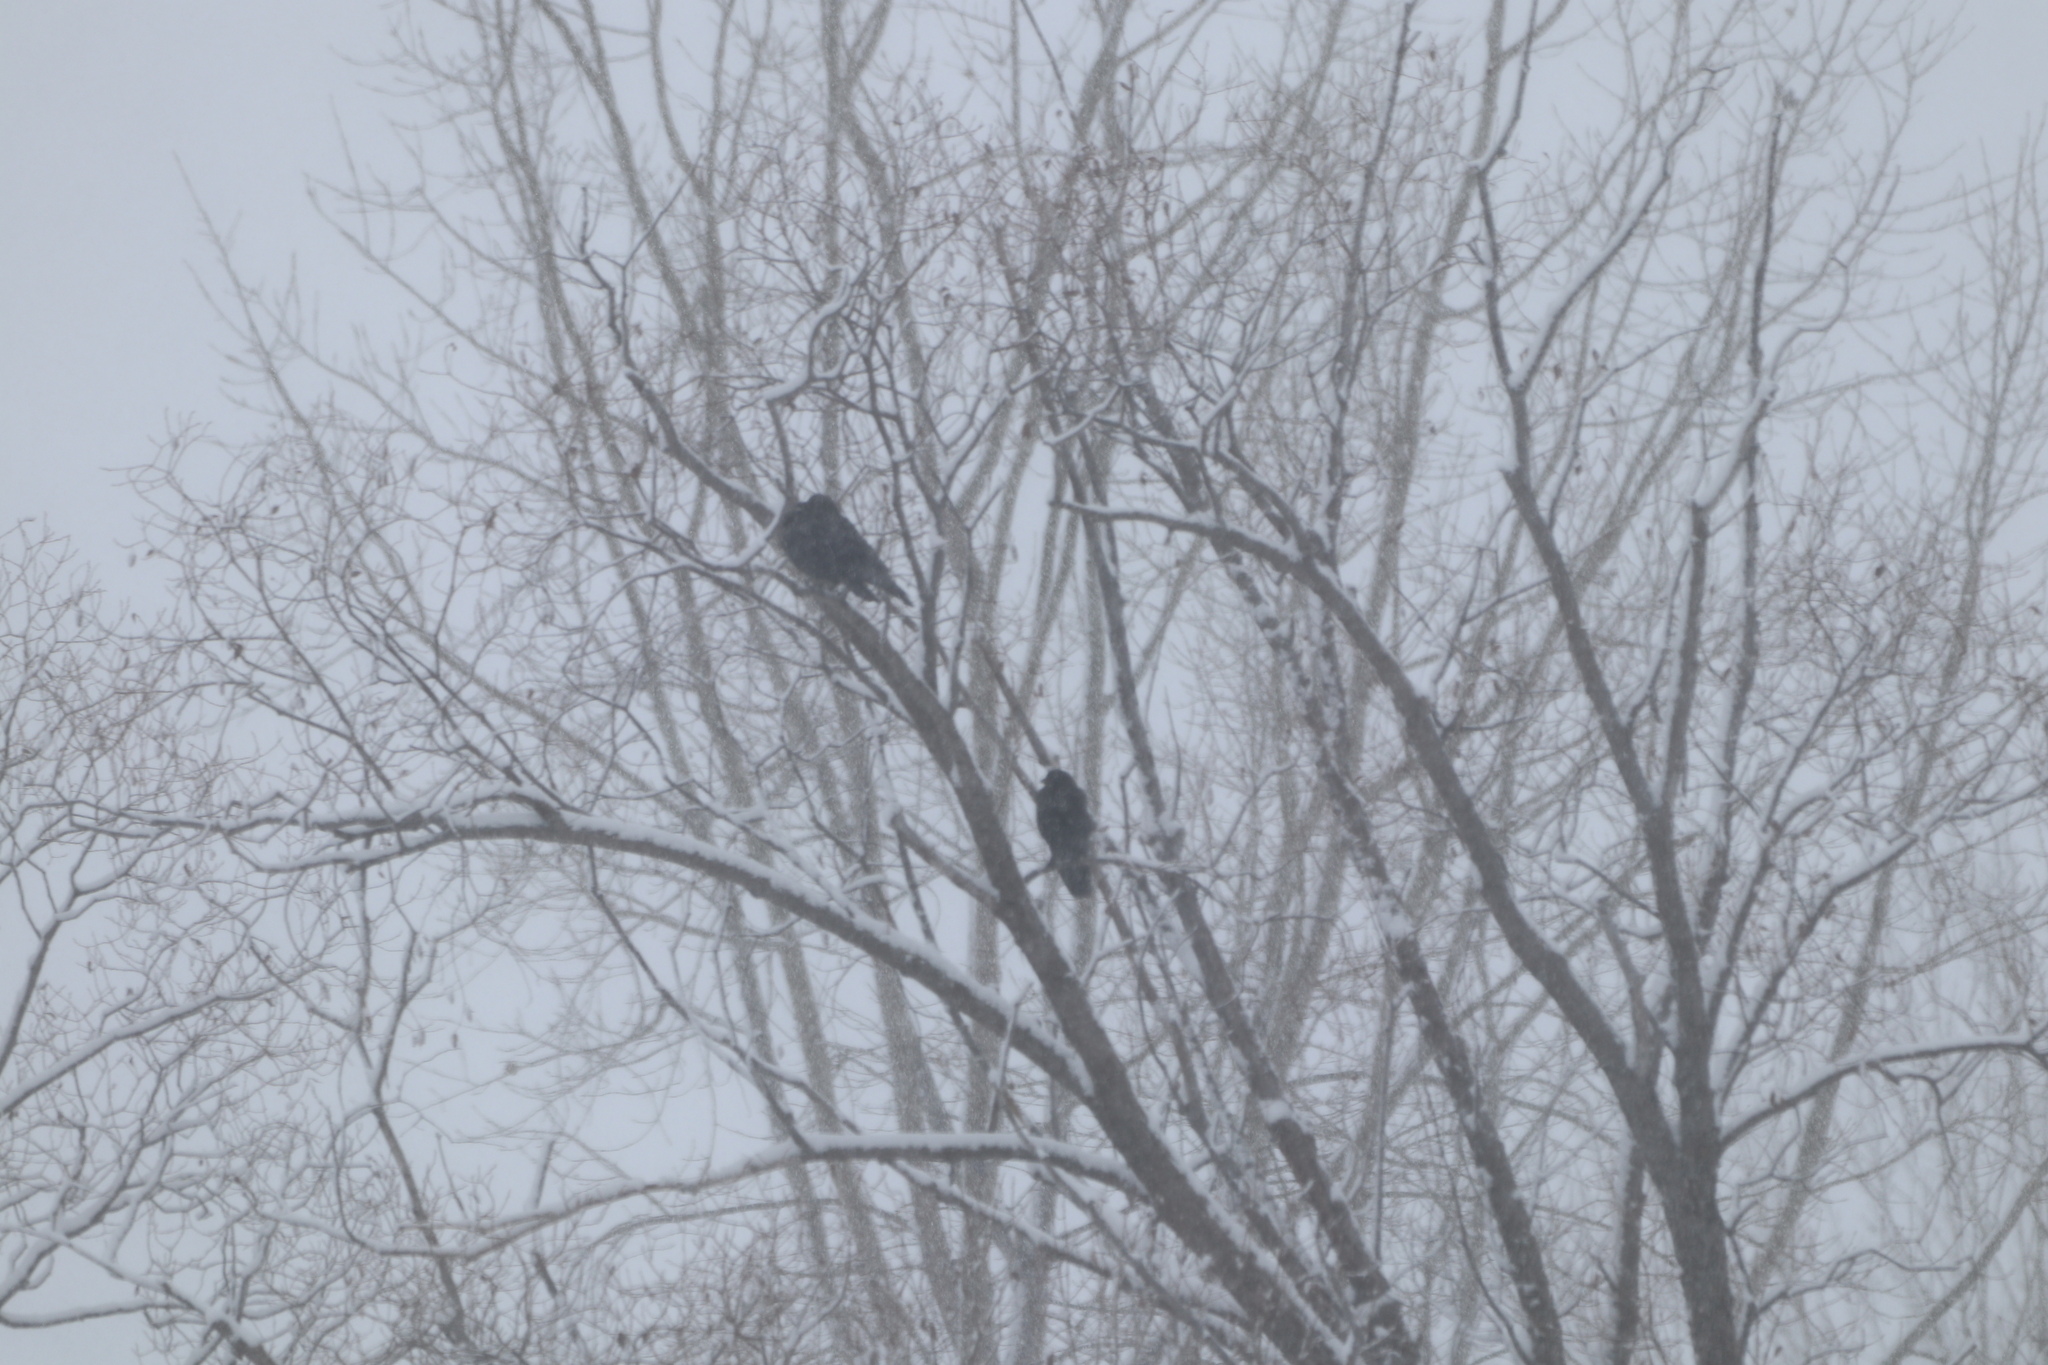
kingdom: Animalia
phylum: Chordata
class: Aves
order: Passeriformes
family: Corvidae
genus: Corvus
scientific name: Corvus brachyrhynchos
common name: American crow
